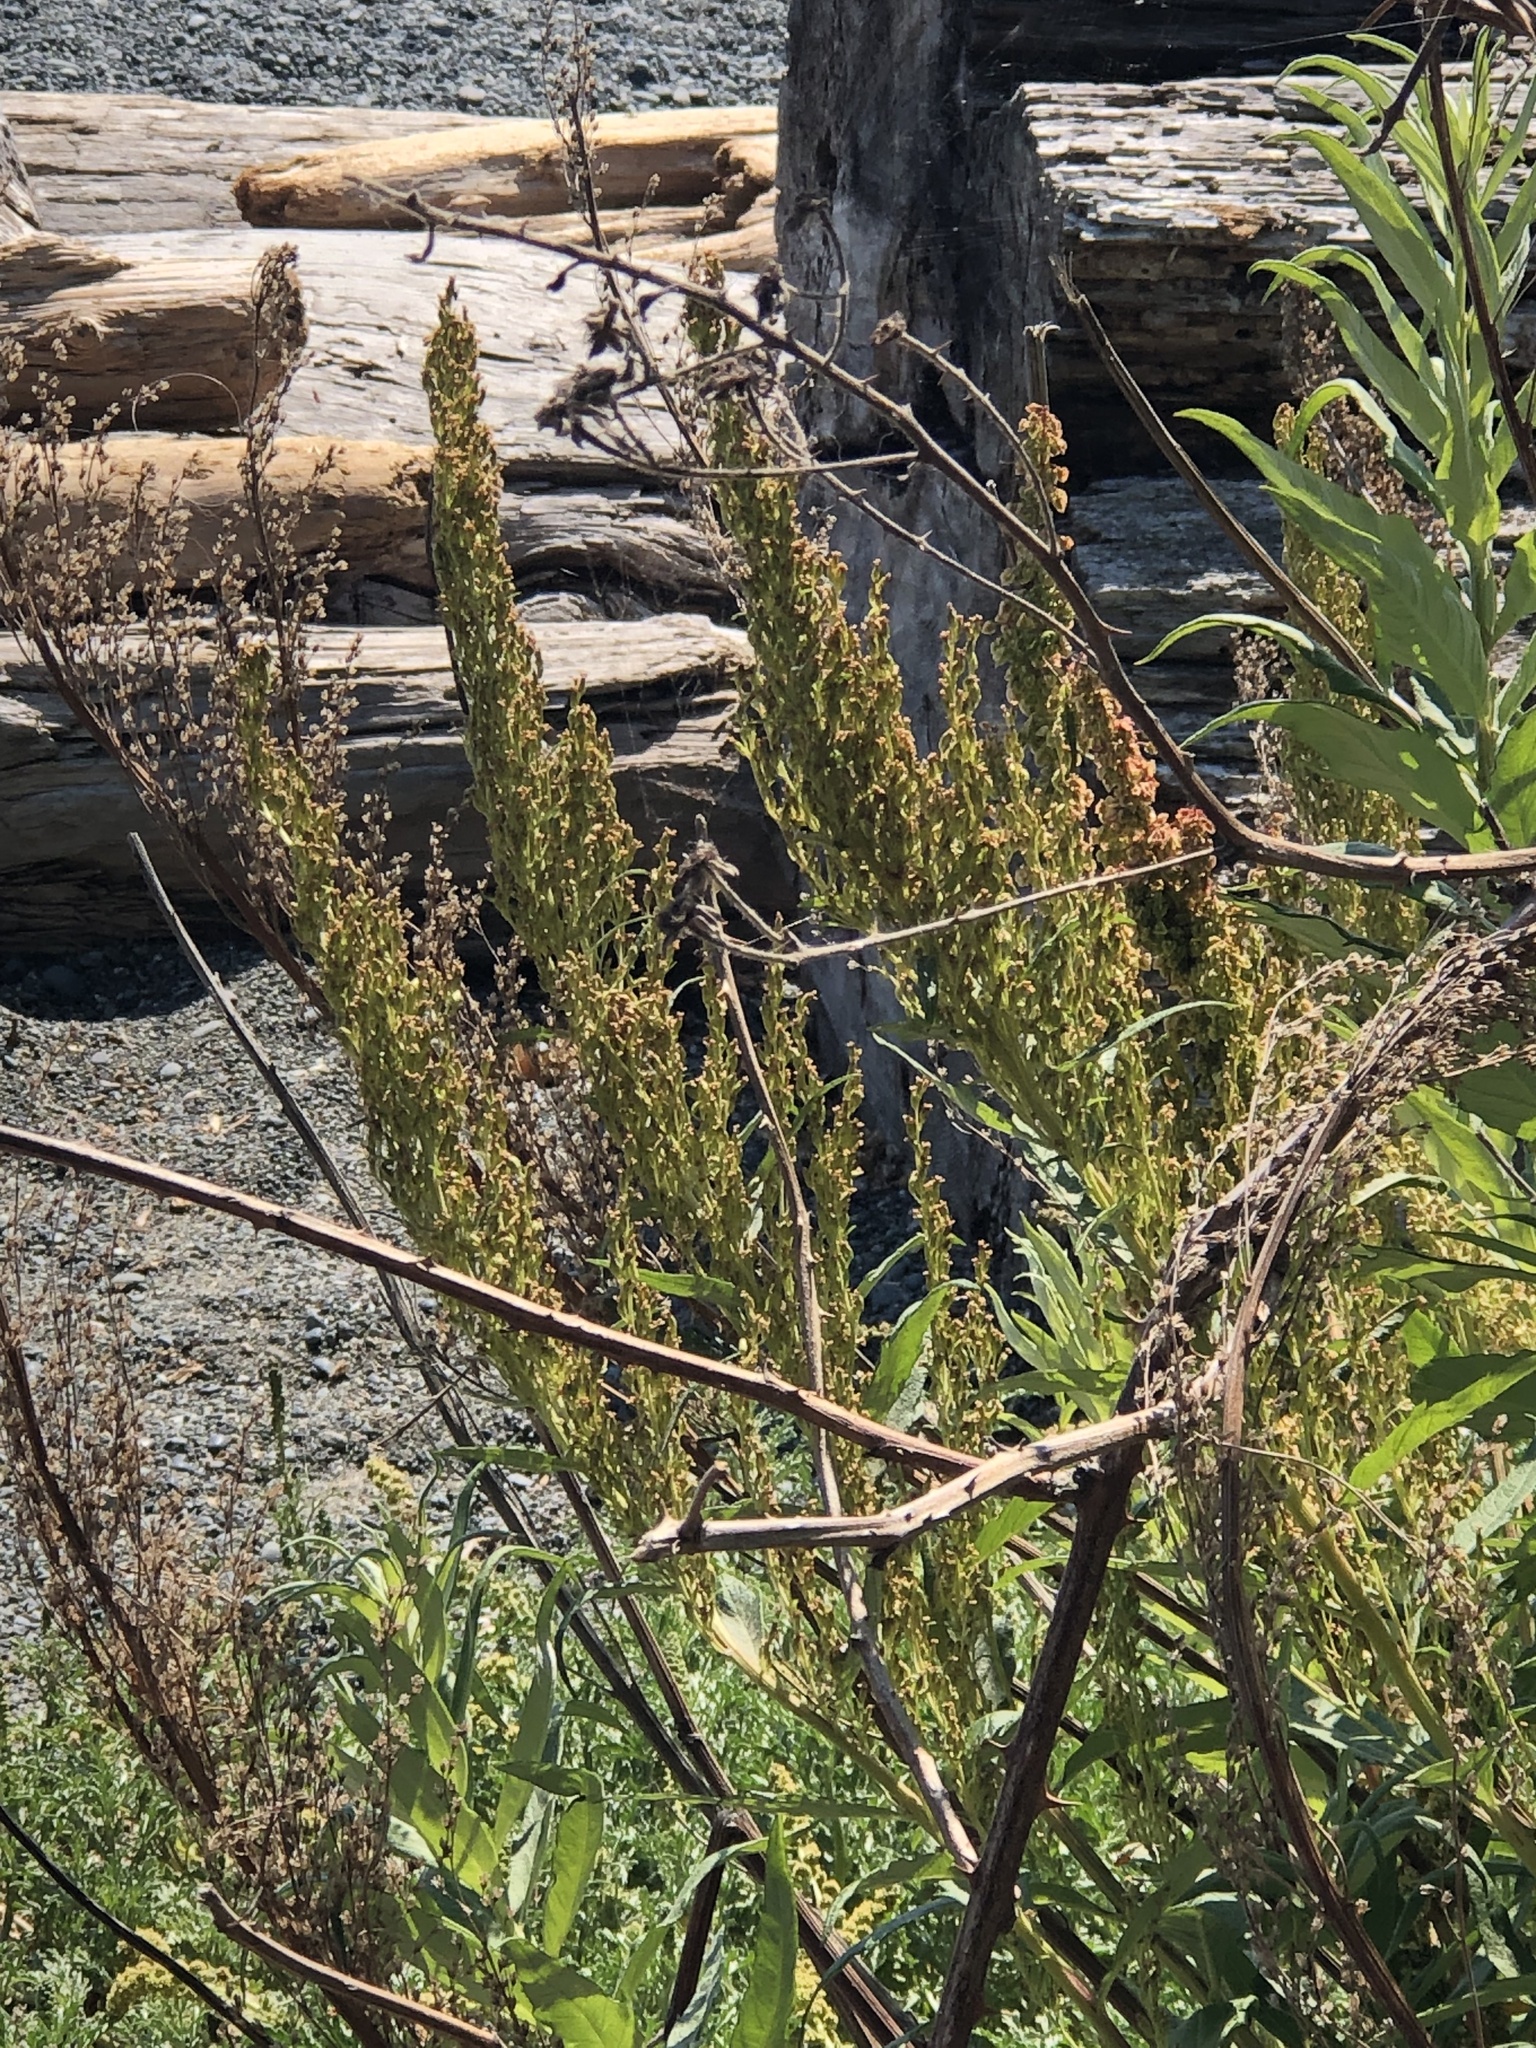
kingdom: Plantae
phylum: Tracheophyta
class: Magnoliopsida
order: Asterales
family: Asteraceae
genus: Artemisia
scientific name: Artemisia suksdorfii
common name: Suksdorf sagewort
